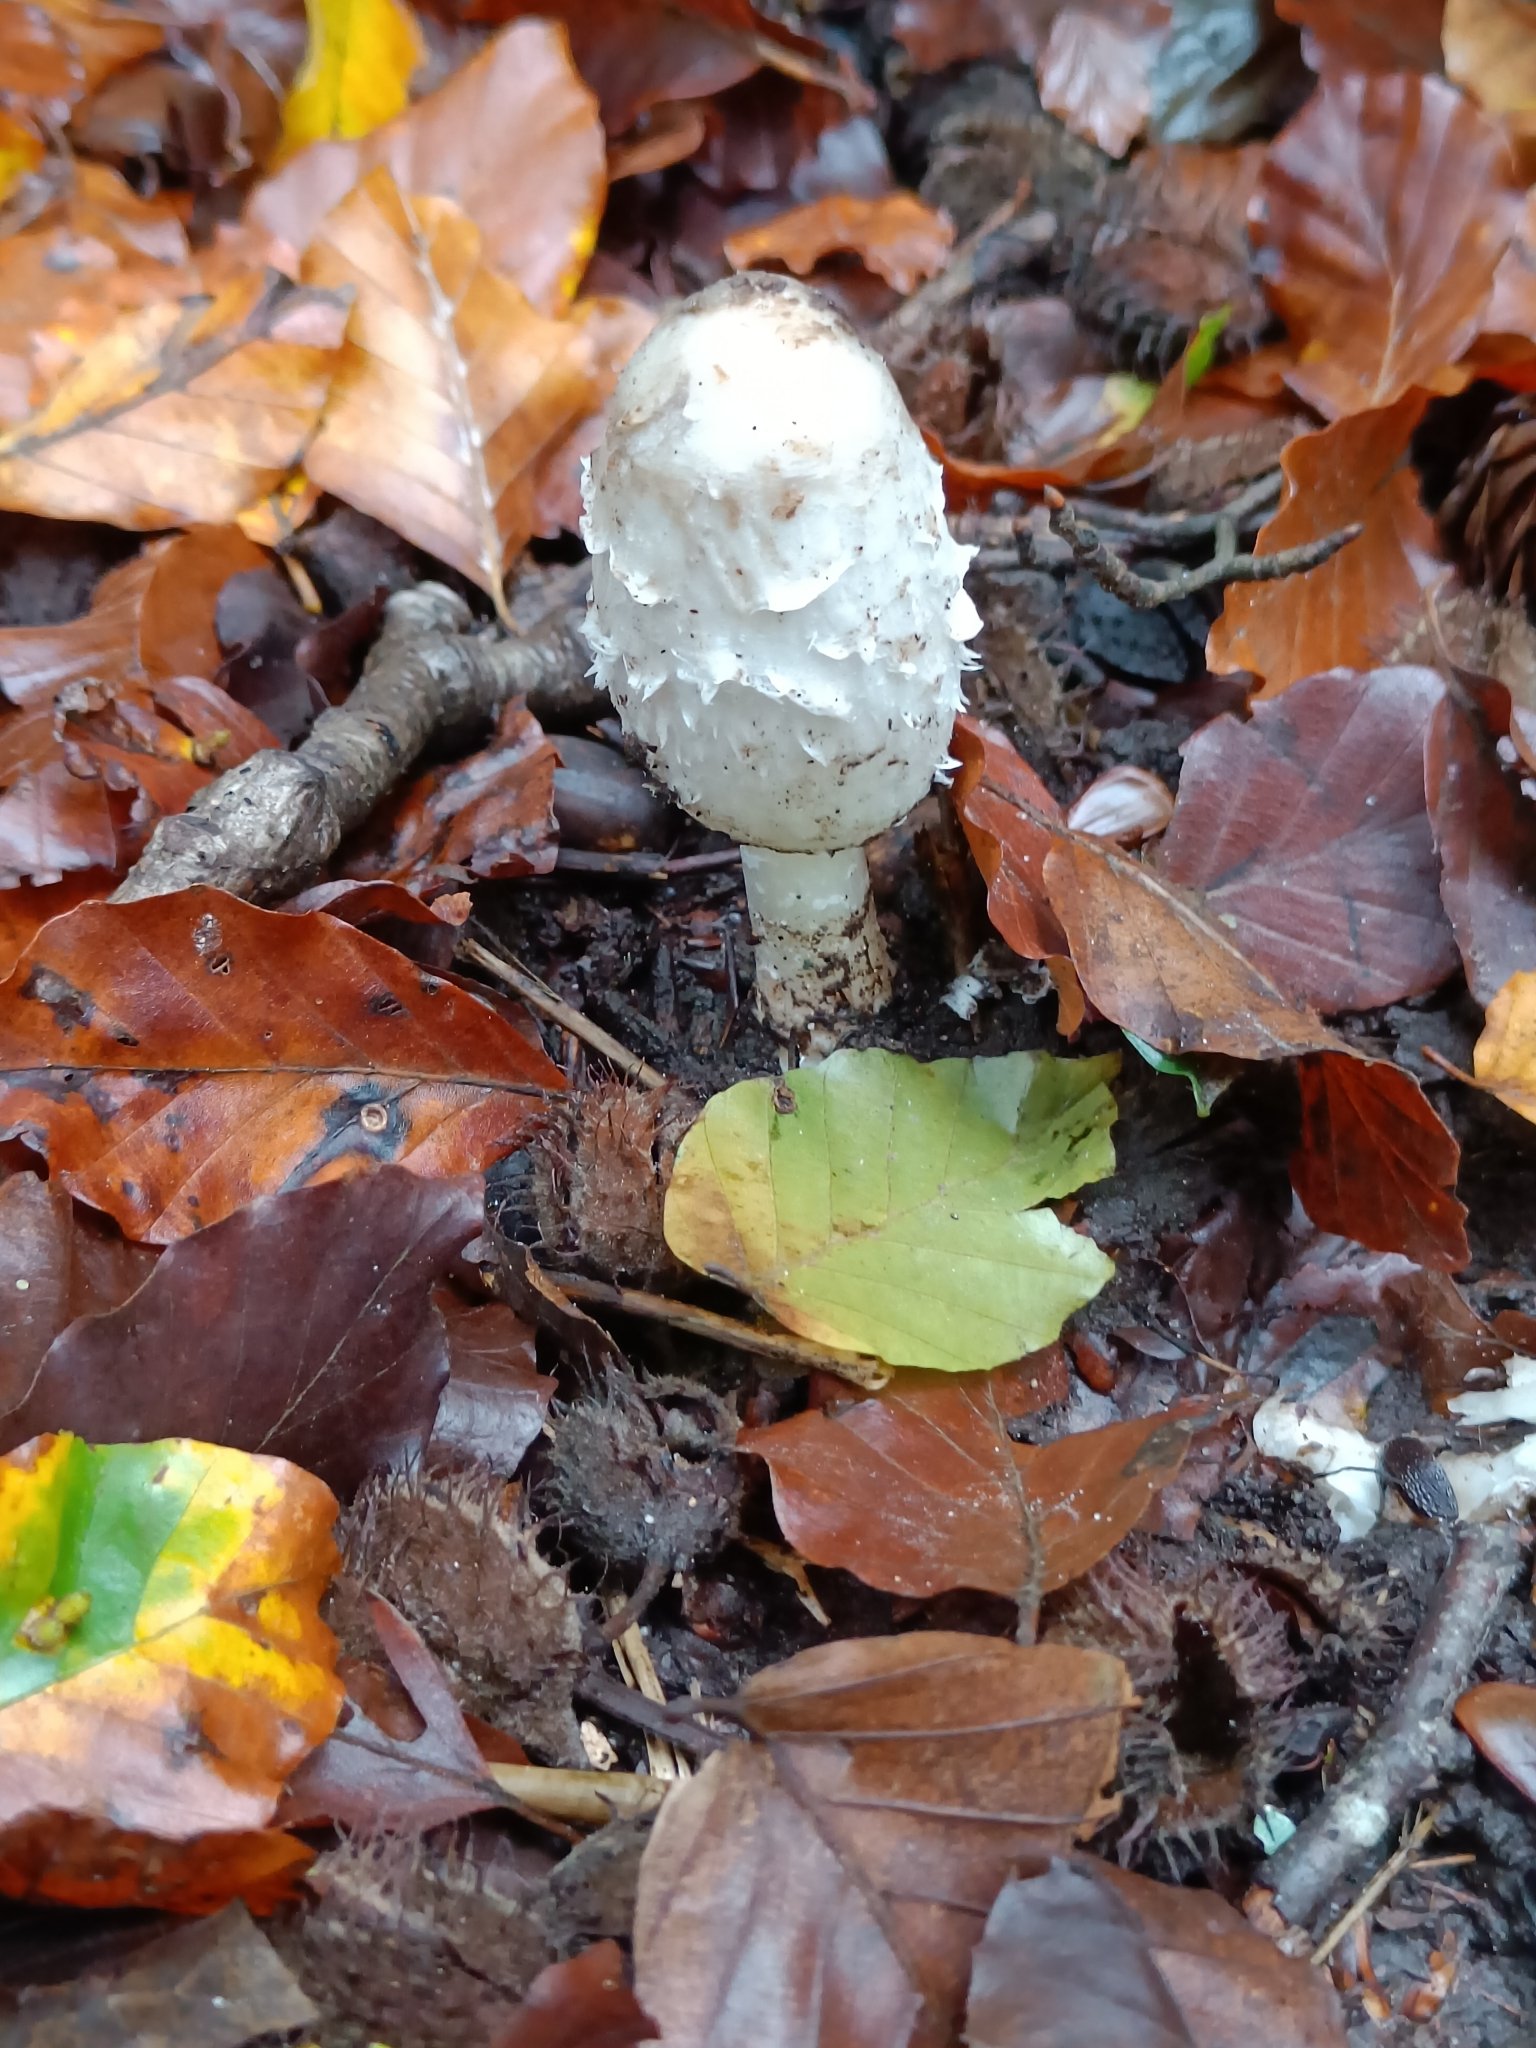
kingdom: Fungi
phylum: Basidiomycota
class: Agaricomycetes
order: Agaricales
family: Agaricaceae
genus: Coprinus
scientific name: Coprinus comatus
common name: Lawyer's wig
